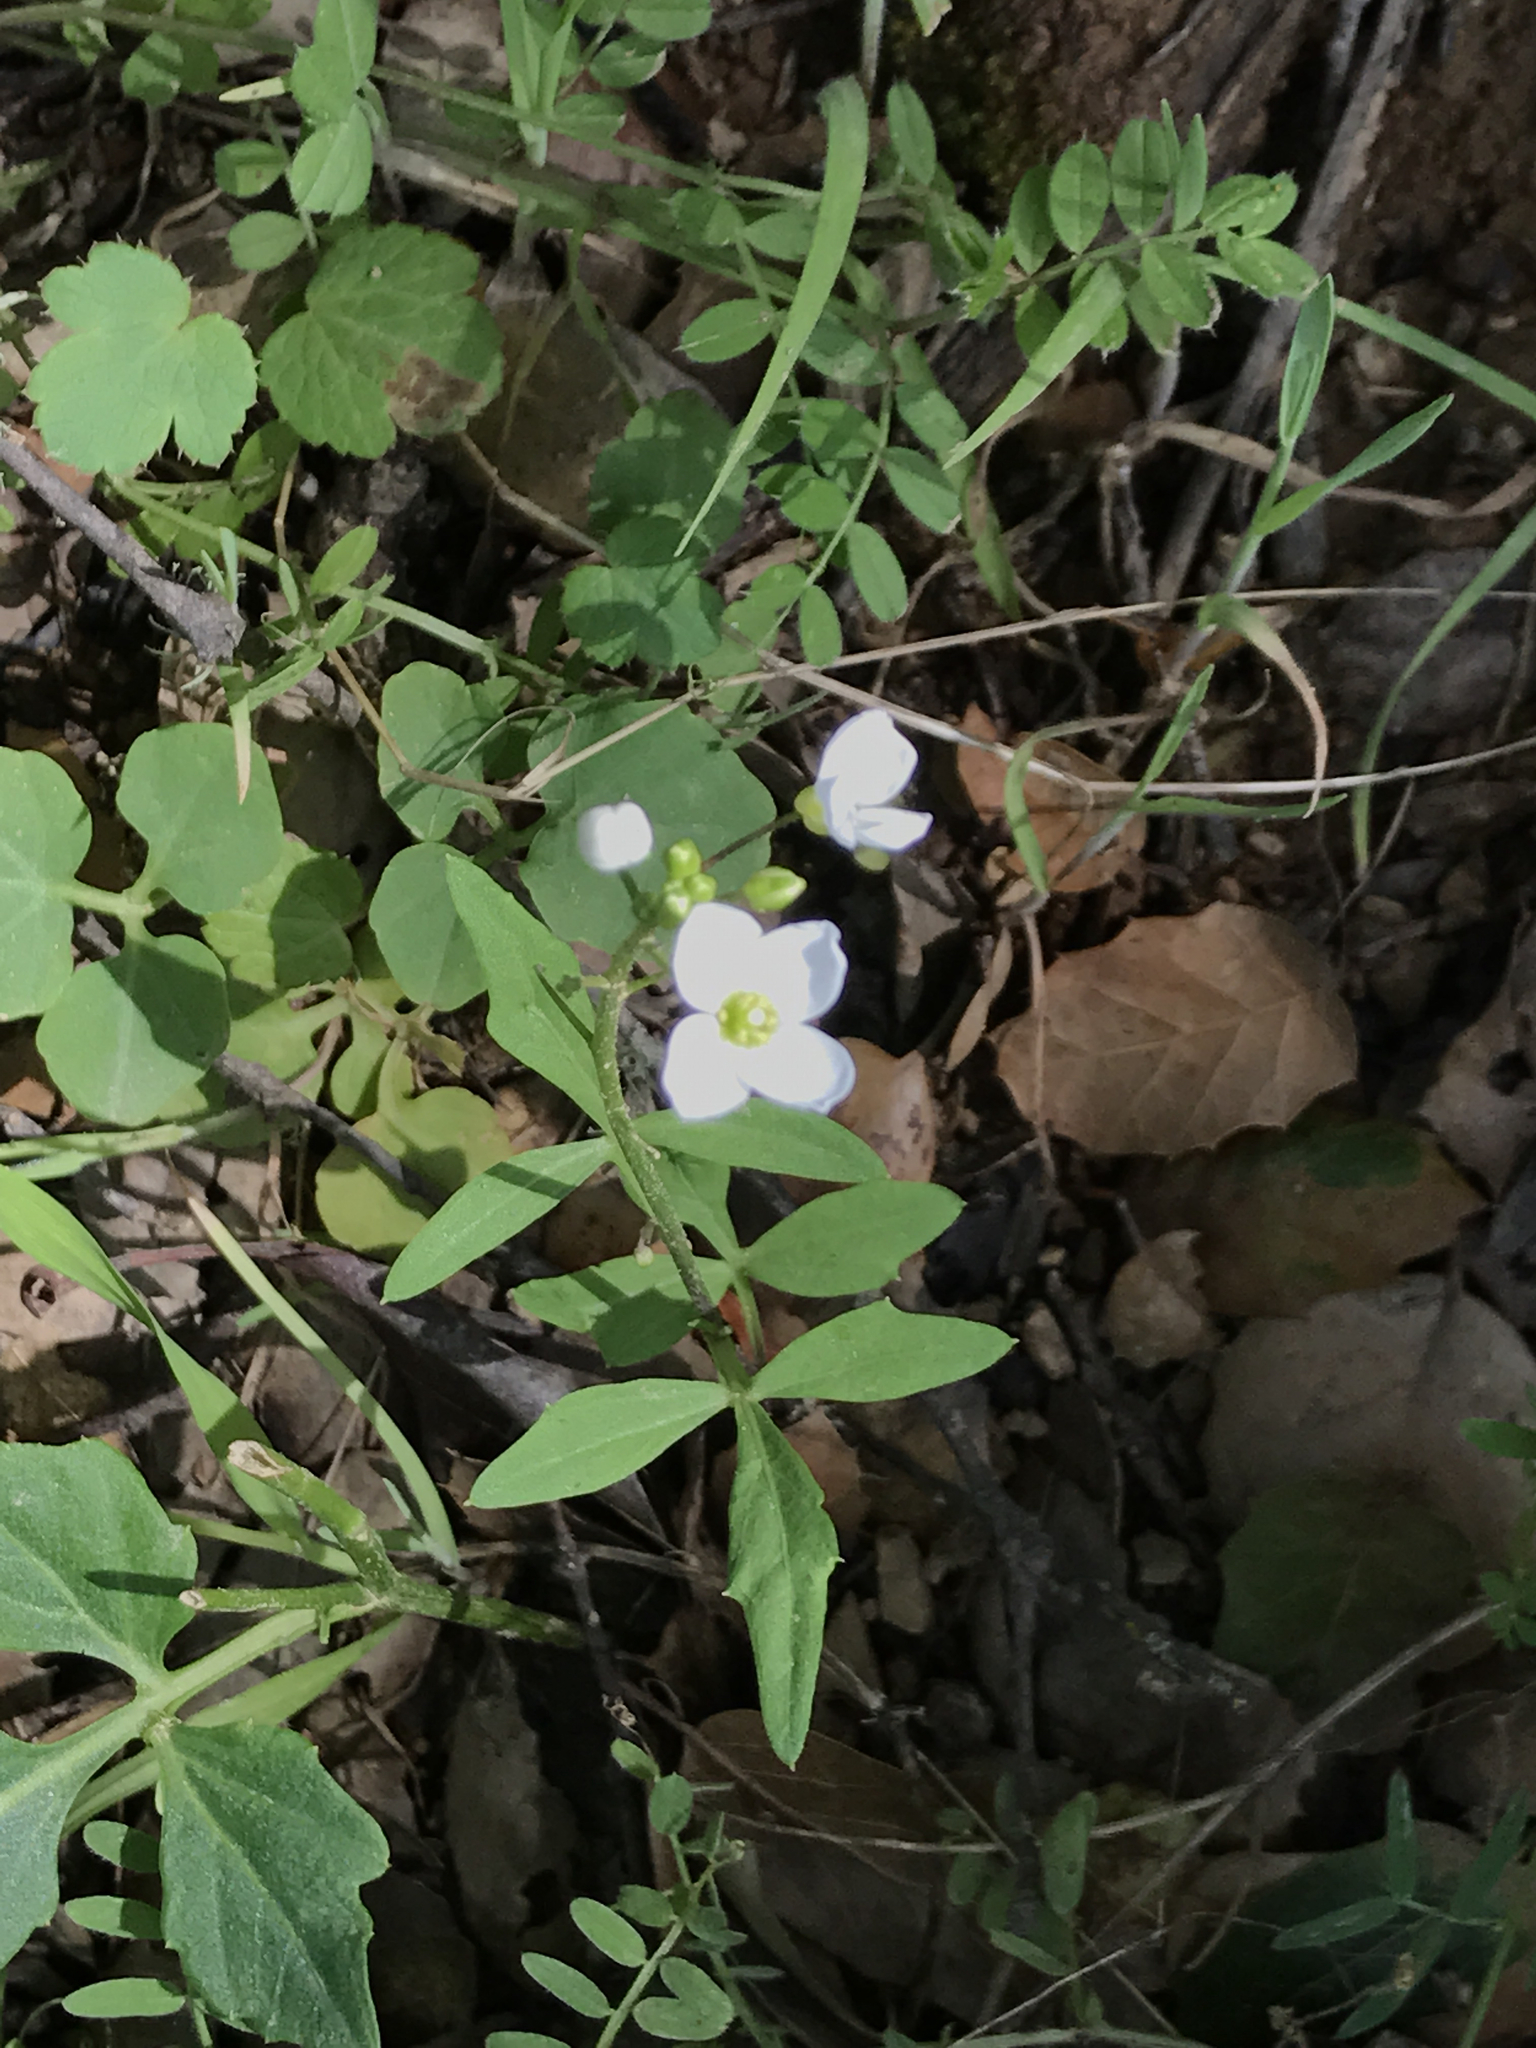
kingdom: Plantae
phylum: Tracheophyta
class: Magnoliopsida
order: Brassicales
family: Brassicaceae
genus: Cardamine
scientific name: Cardamine californica
